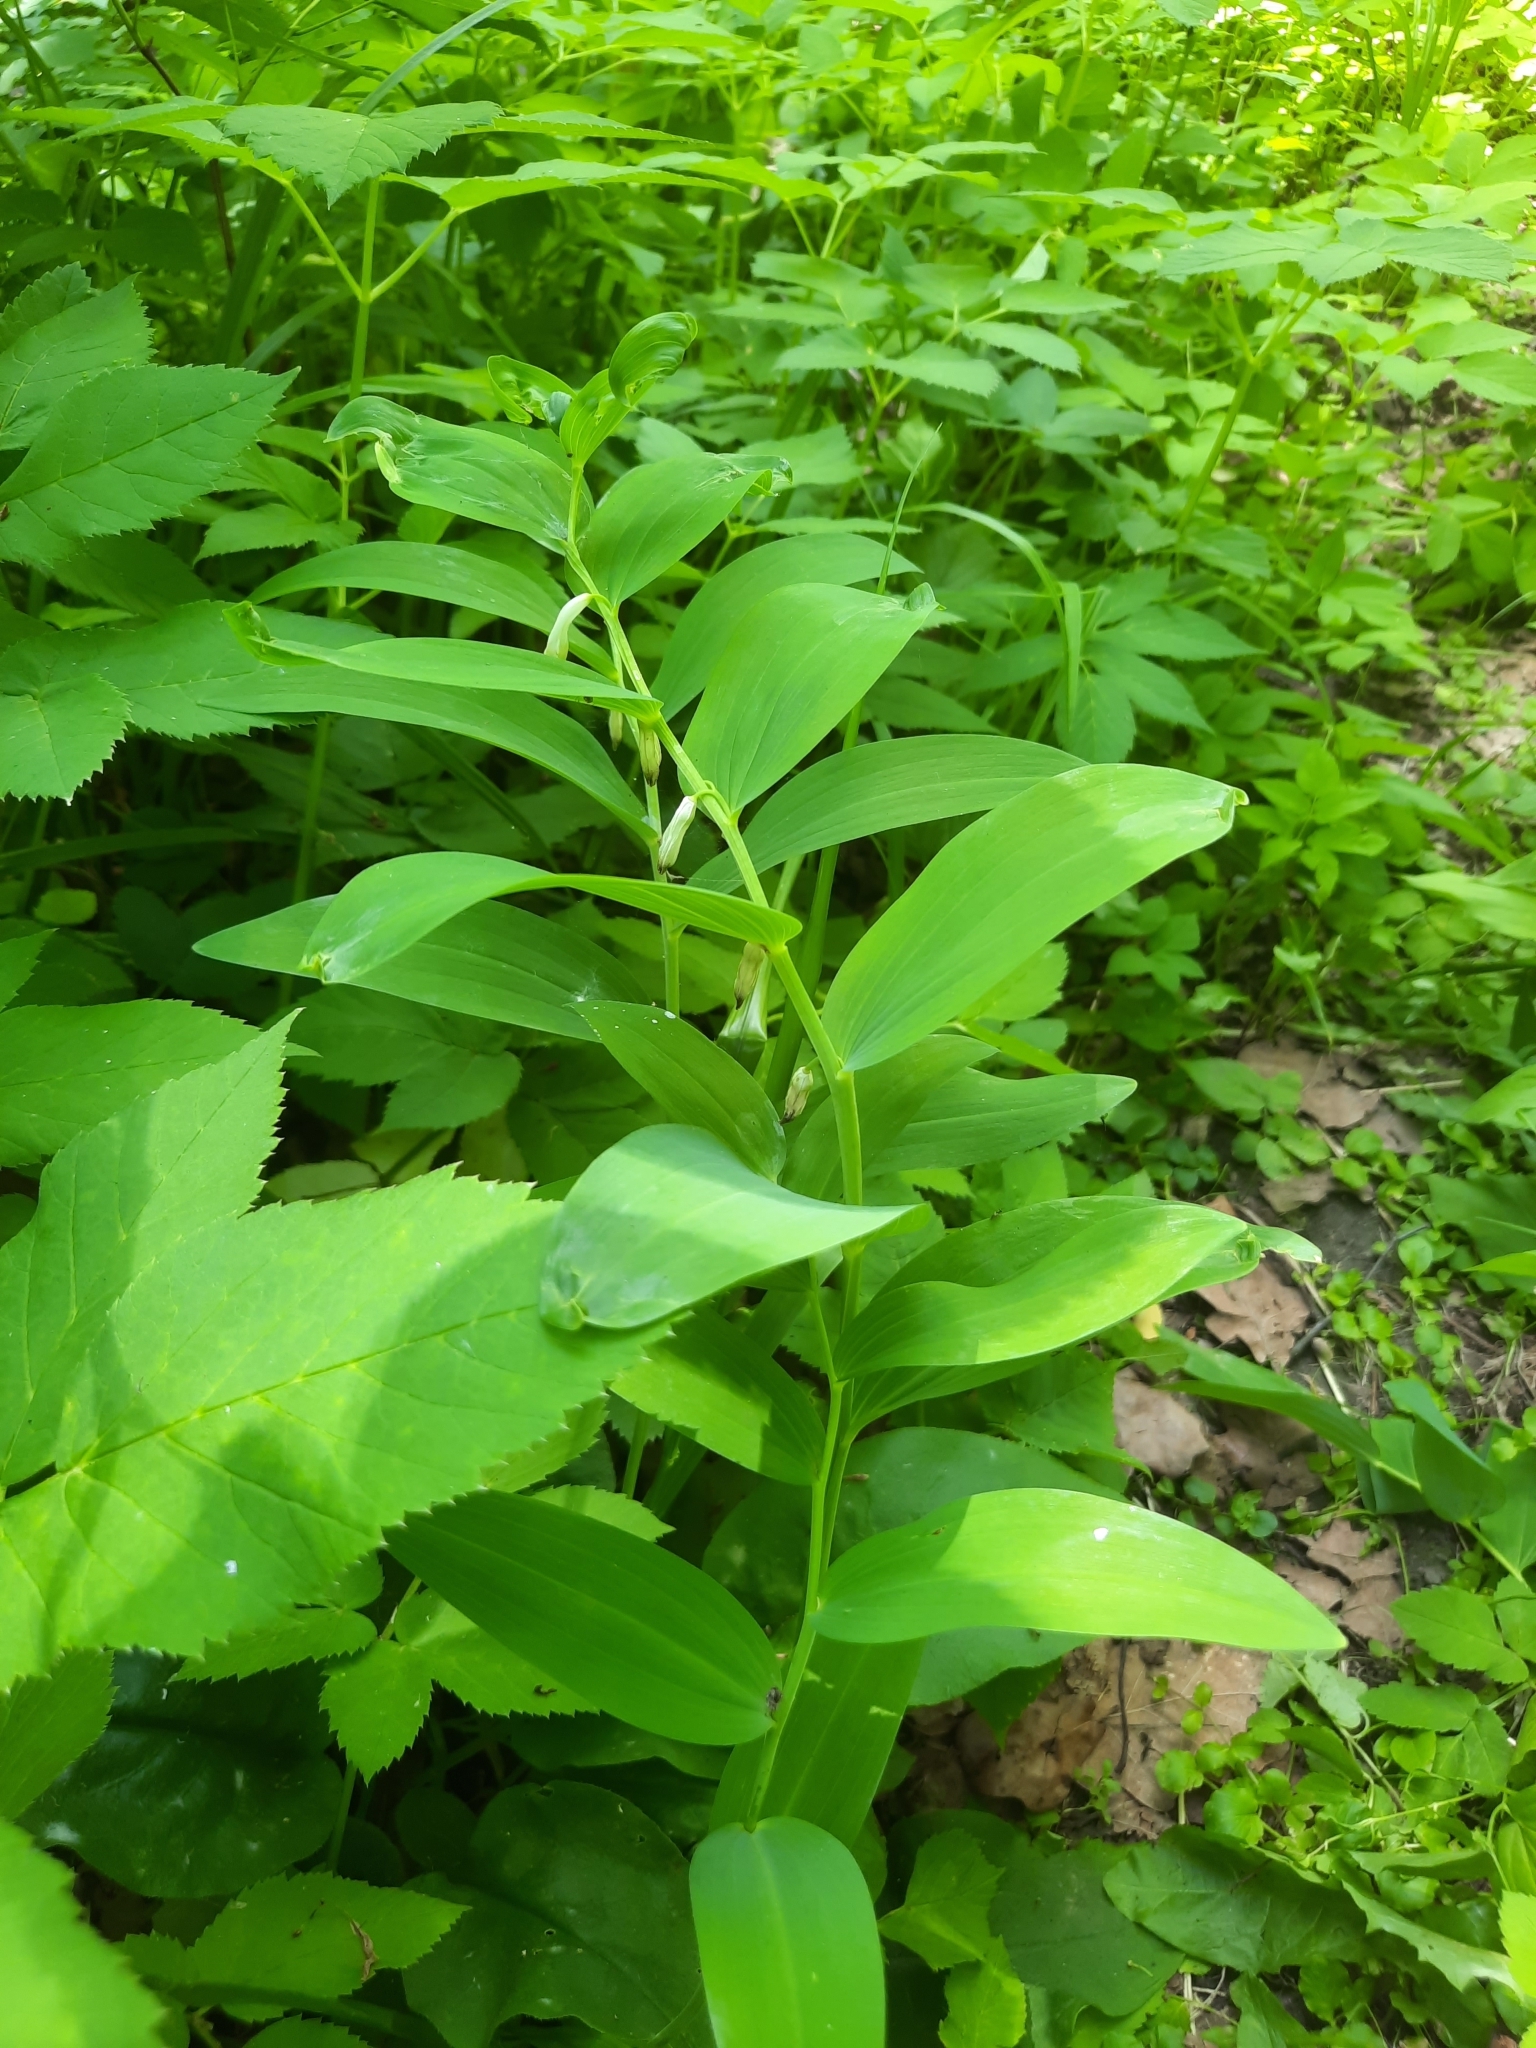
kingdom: Plantae
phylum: Tracheophyta
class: Liliopsida
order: Asparagales
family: Asparagaceae
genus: Polygonatum
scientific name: Polygonatum multiflorum
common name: Solomon's-seal
